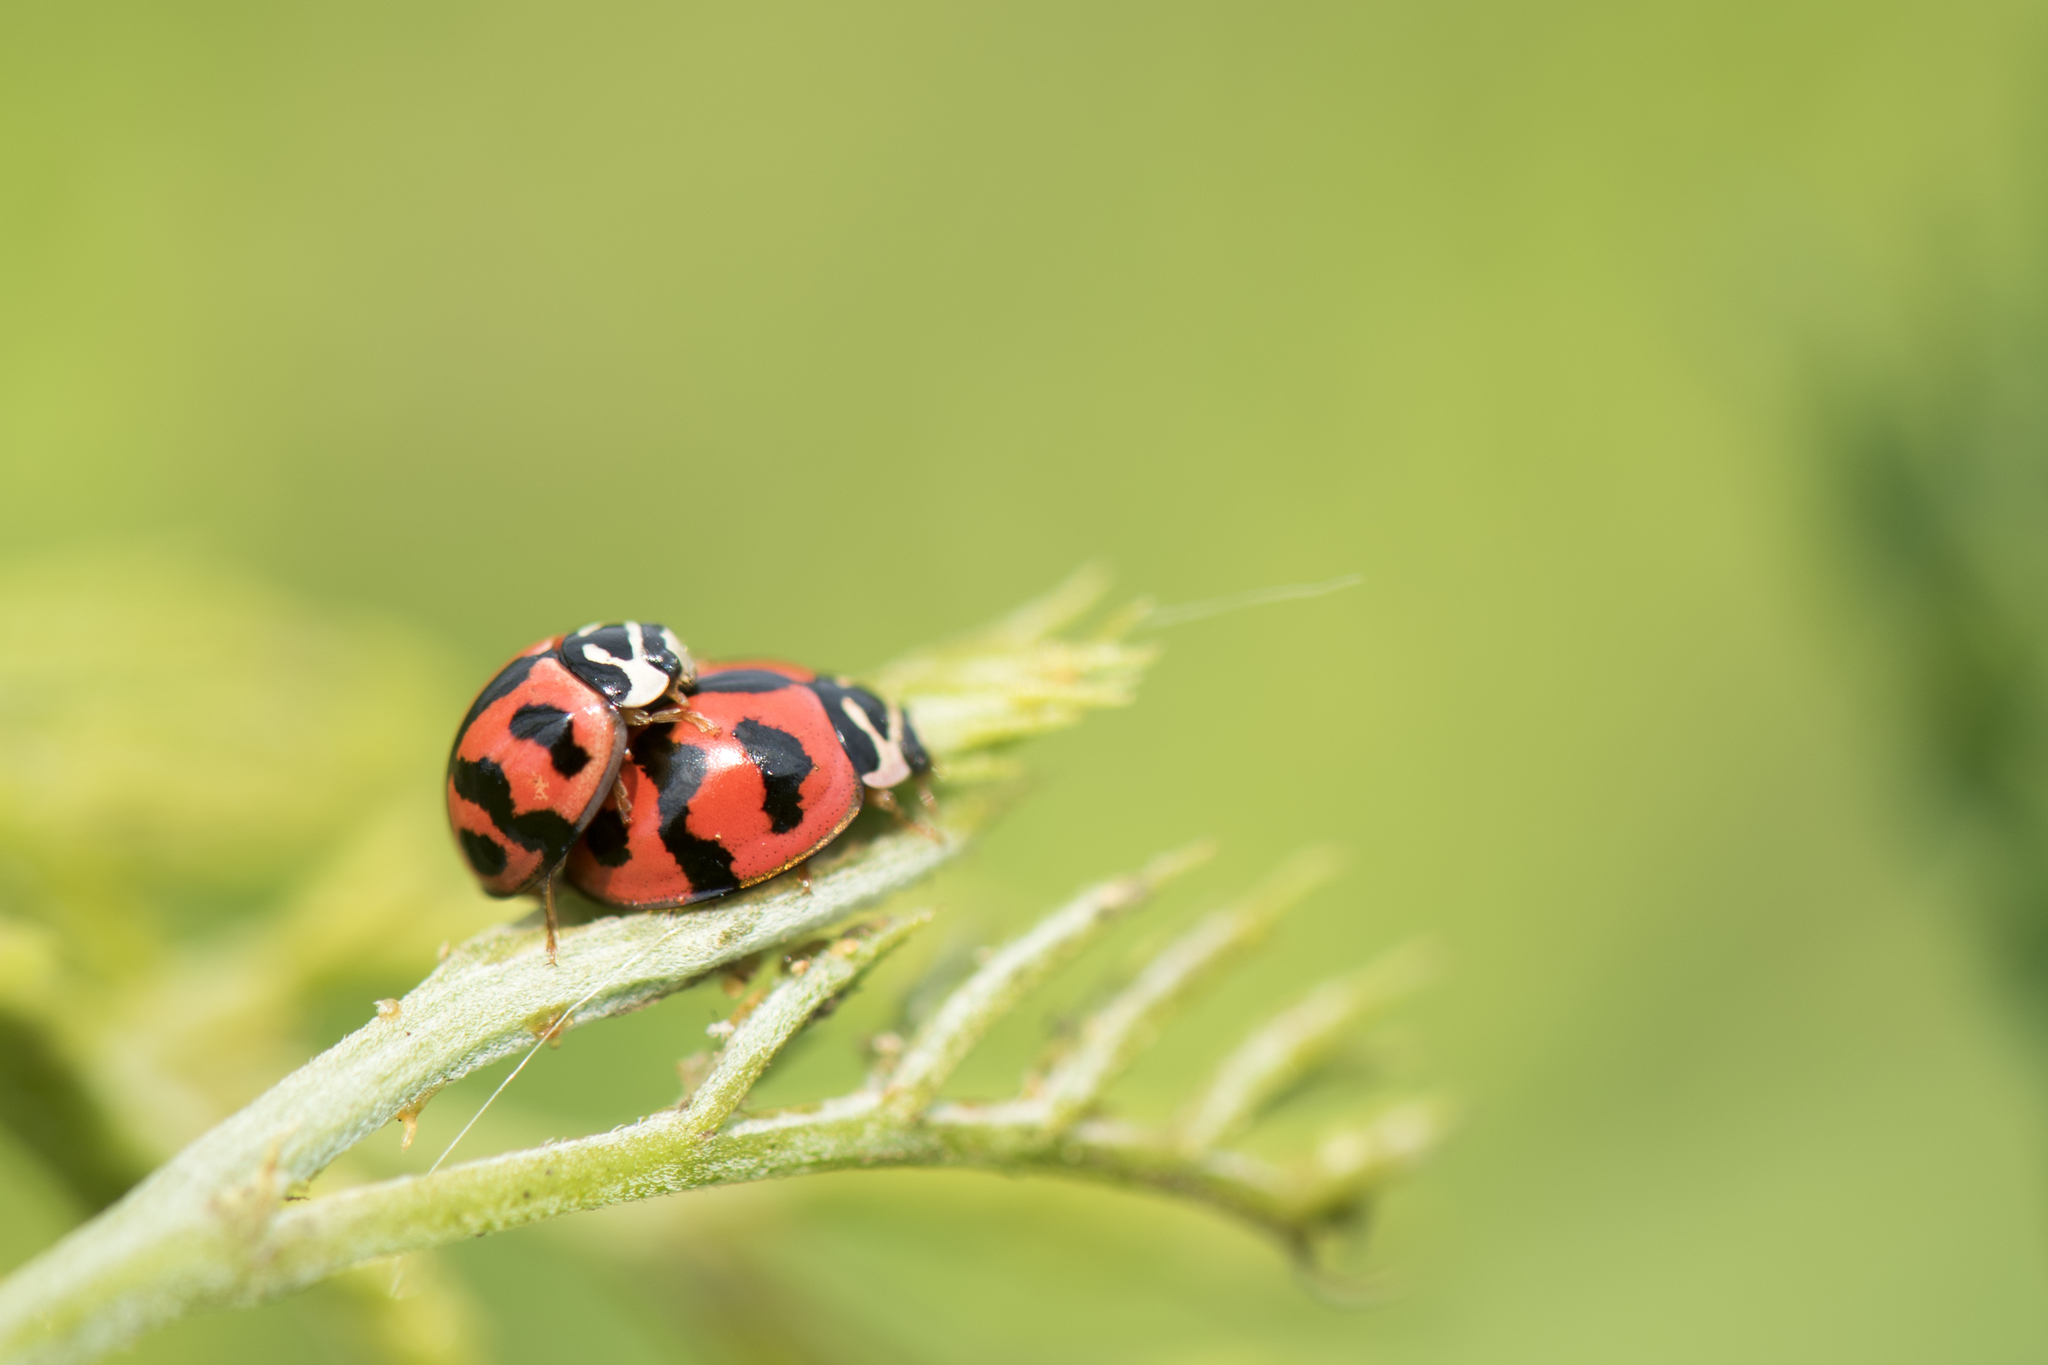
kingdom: Animalia
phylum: Arthropoda
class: Insecta
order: Coleoptera
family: Coccinellidae
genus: Cheilomenes
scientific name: Cheilomenes sexmaculata
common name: Ladybird beetle
